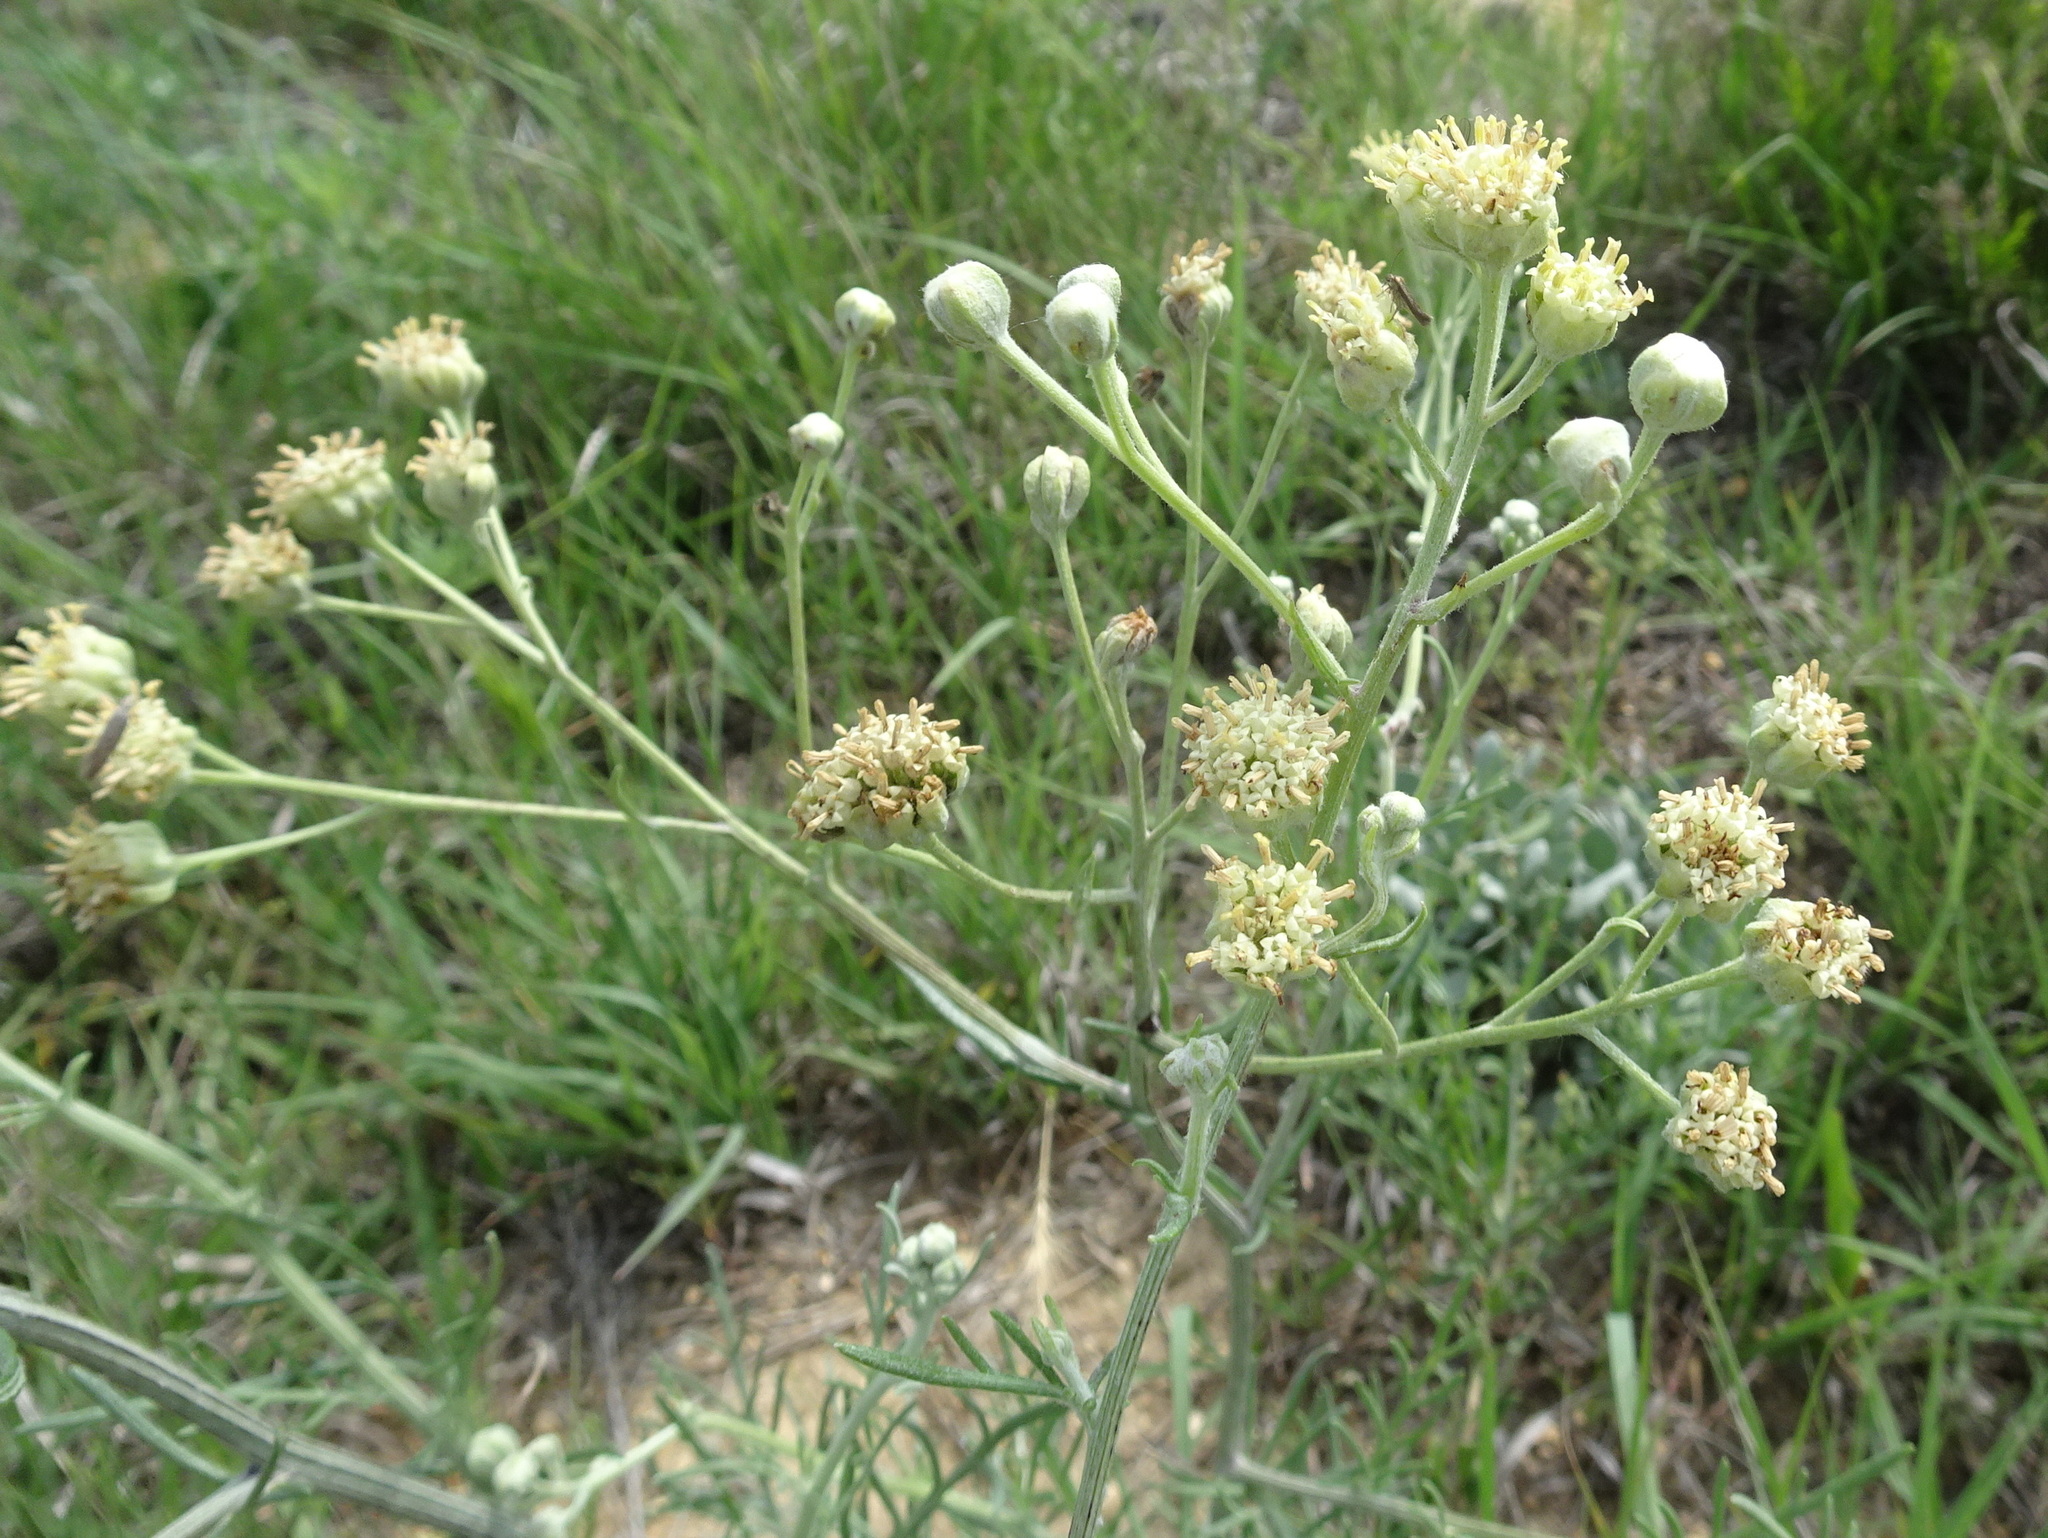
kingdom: Plantae
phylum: Tracheophyta
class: Magnoliopsida
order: Asterales
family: Asteraceae
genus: Hymenopappus
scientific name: Hymenopappus tenuifolius
